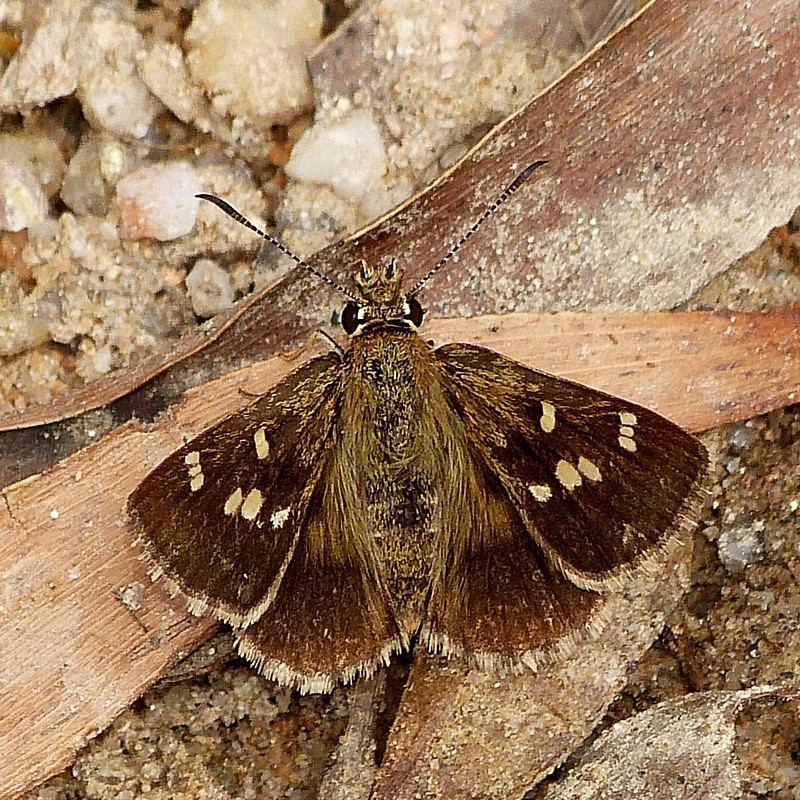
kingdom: Animalia
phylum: Arthropoda
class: Insecta
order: Lepidoptera
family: Hesperiidae
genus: Toxidia
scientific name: Toxidia parvulus
